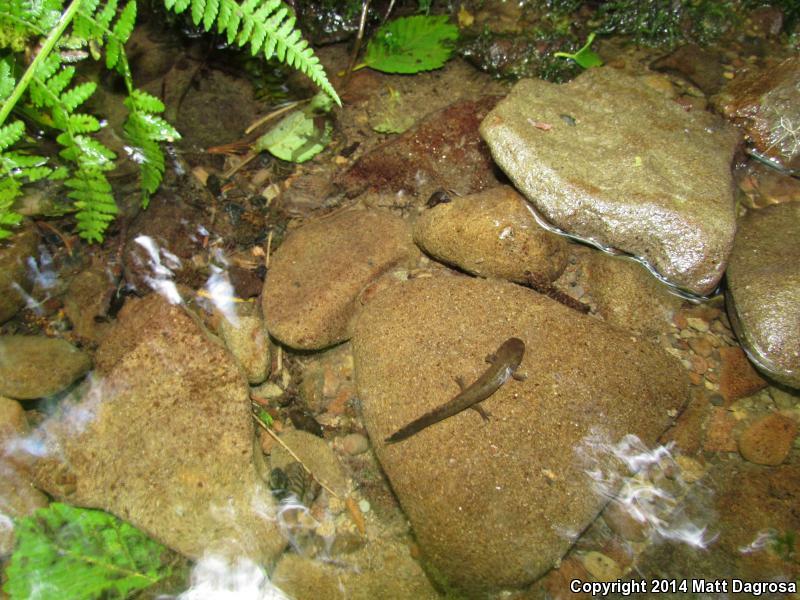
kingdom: Animalia
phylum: Chordata
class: Amphibia
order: Caudata
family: Ambystomatidae
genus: Dicamptodon
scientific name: Dicamptodon tenebrosus
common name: Coastal giant salamander
